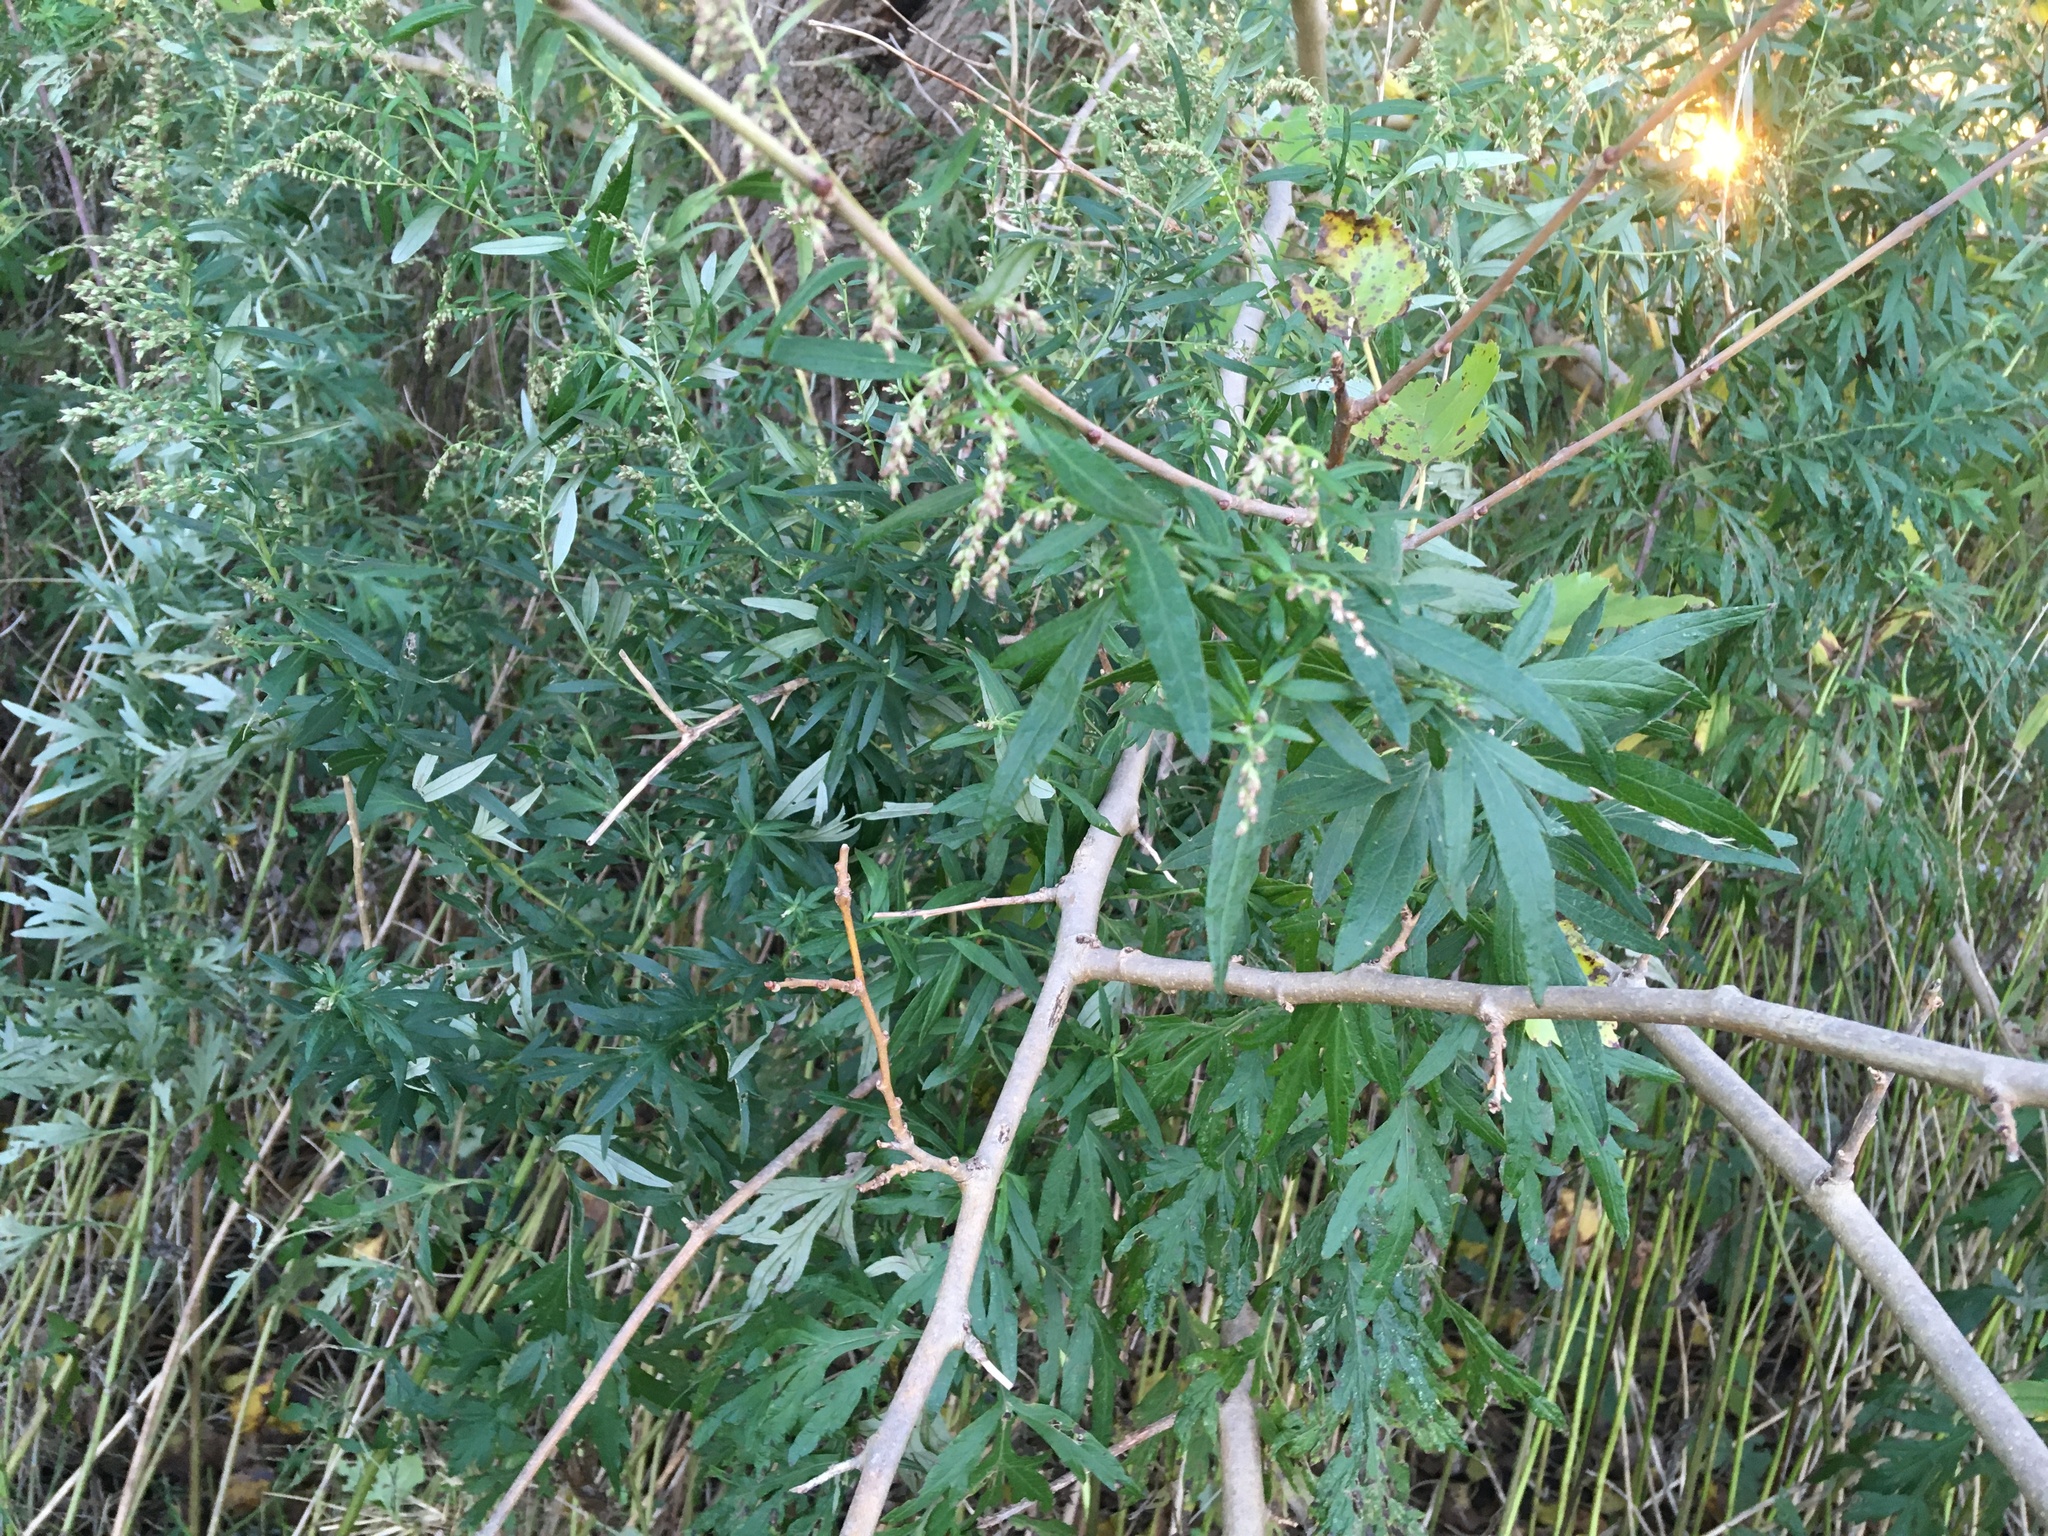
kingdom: Plantae
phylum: Tracheophyta
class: Magnoliopsida
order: Asterales
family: Asteraceae
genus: Artemisia
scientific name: Artemisia vulgaris
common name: Mugwort
